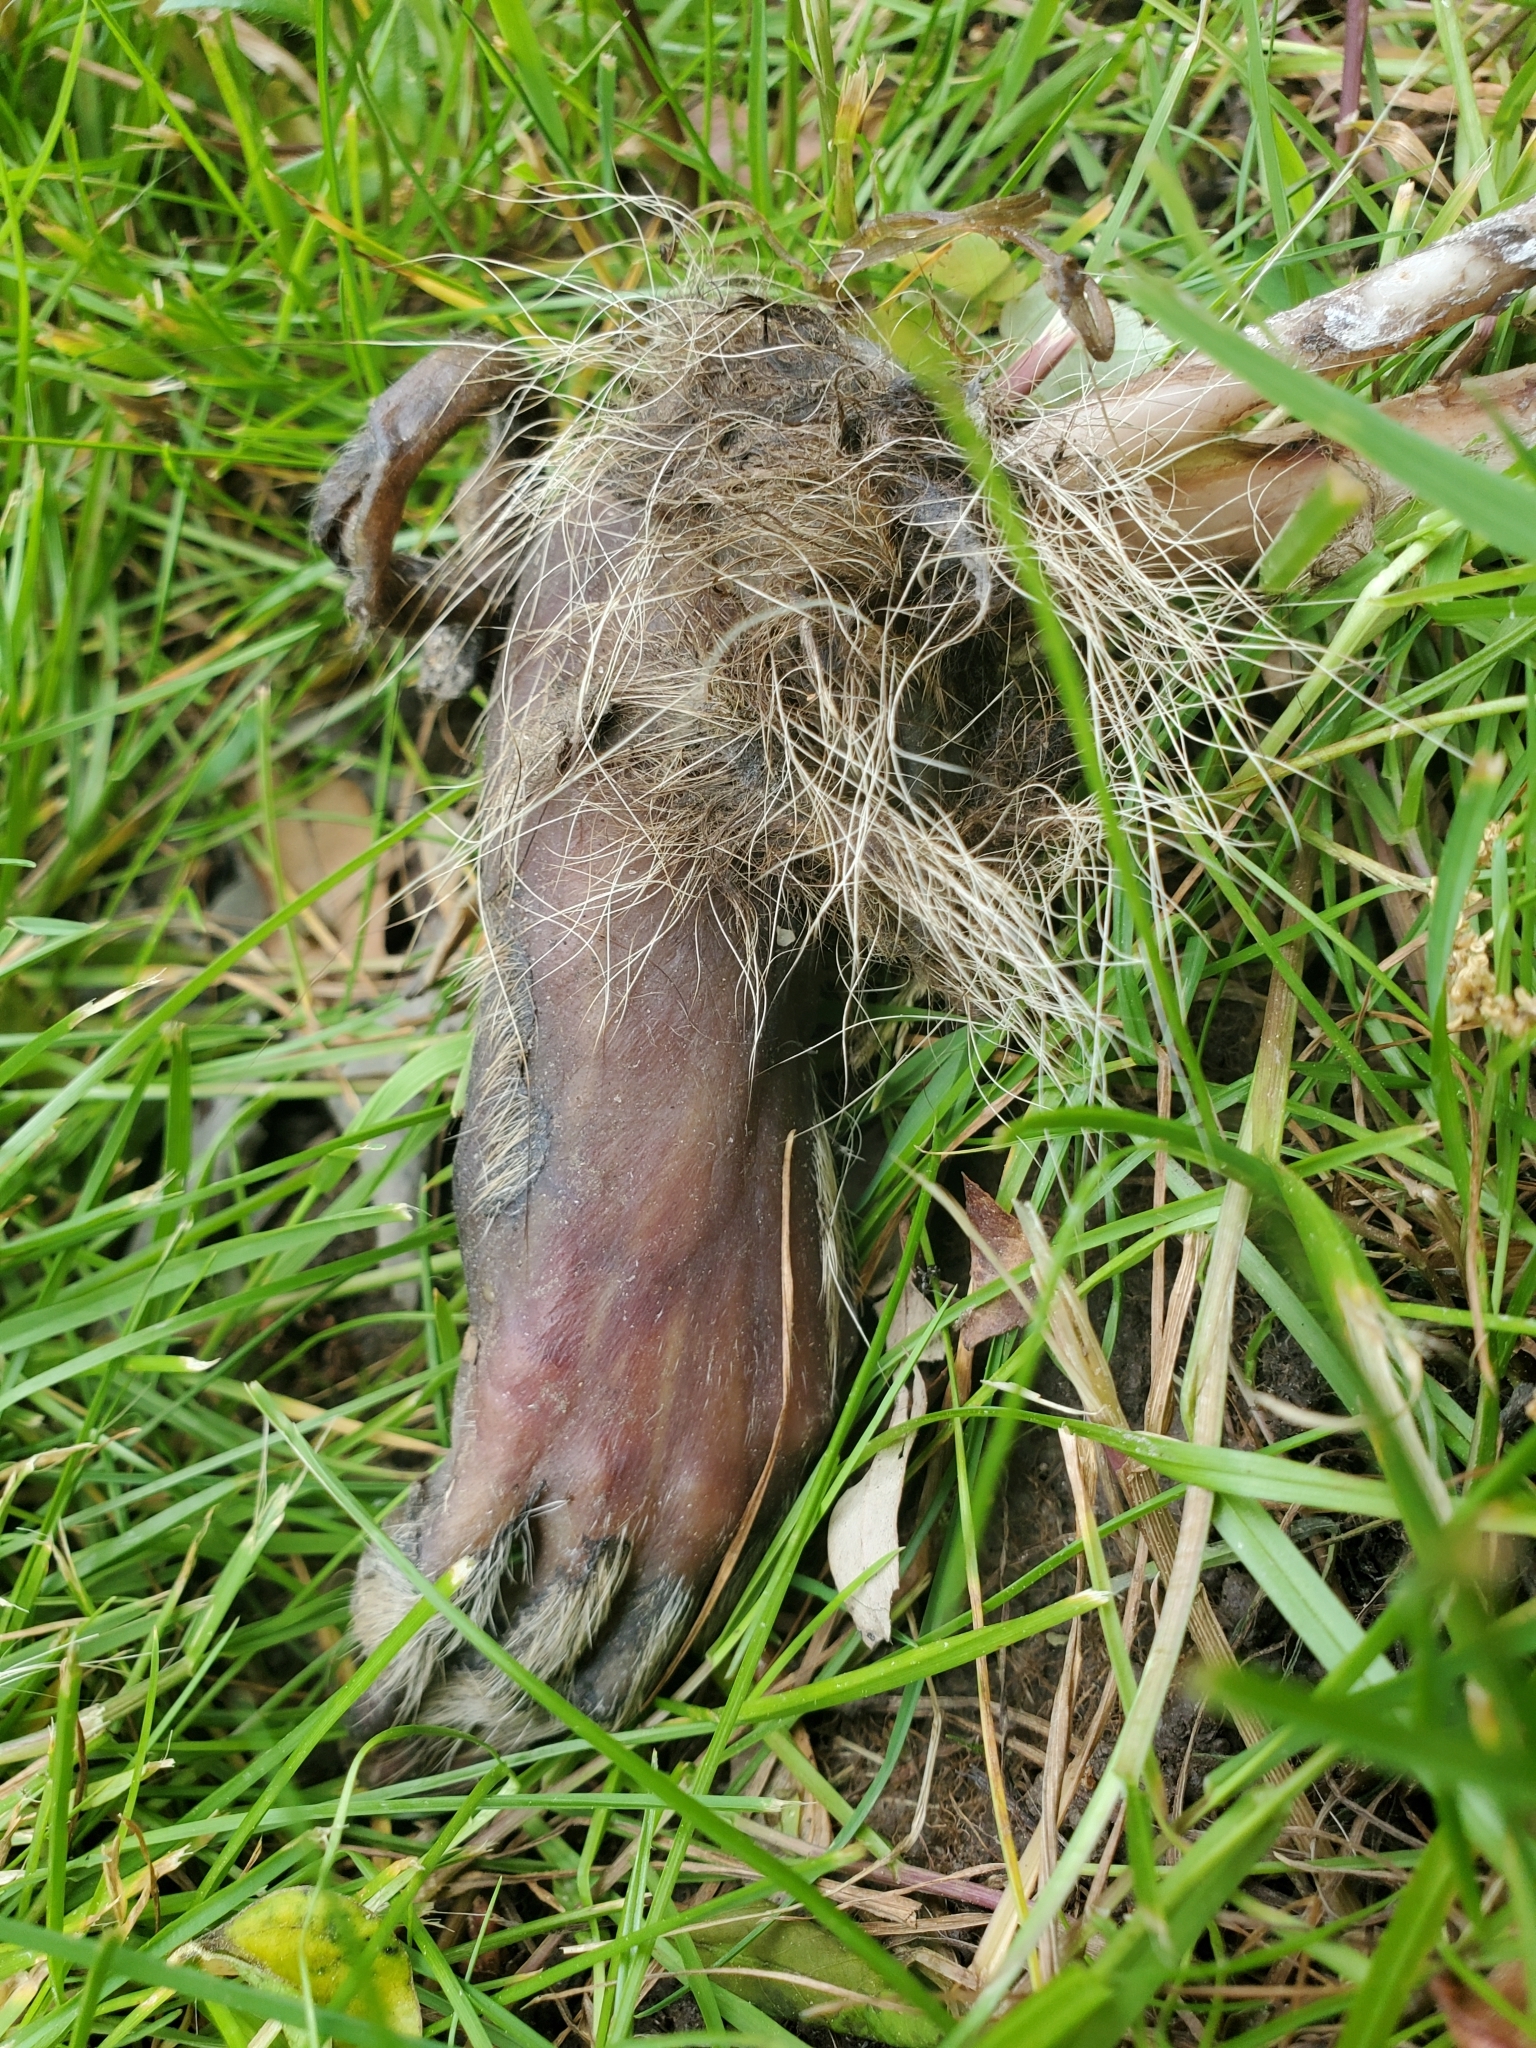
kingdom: Animalia
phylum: Chordata
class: Mammalia
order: Carnivora
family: Procyonidae
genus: Procyon
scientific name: Procyon lotor
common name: Raccoon
